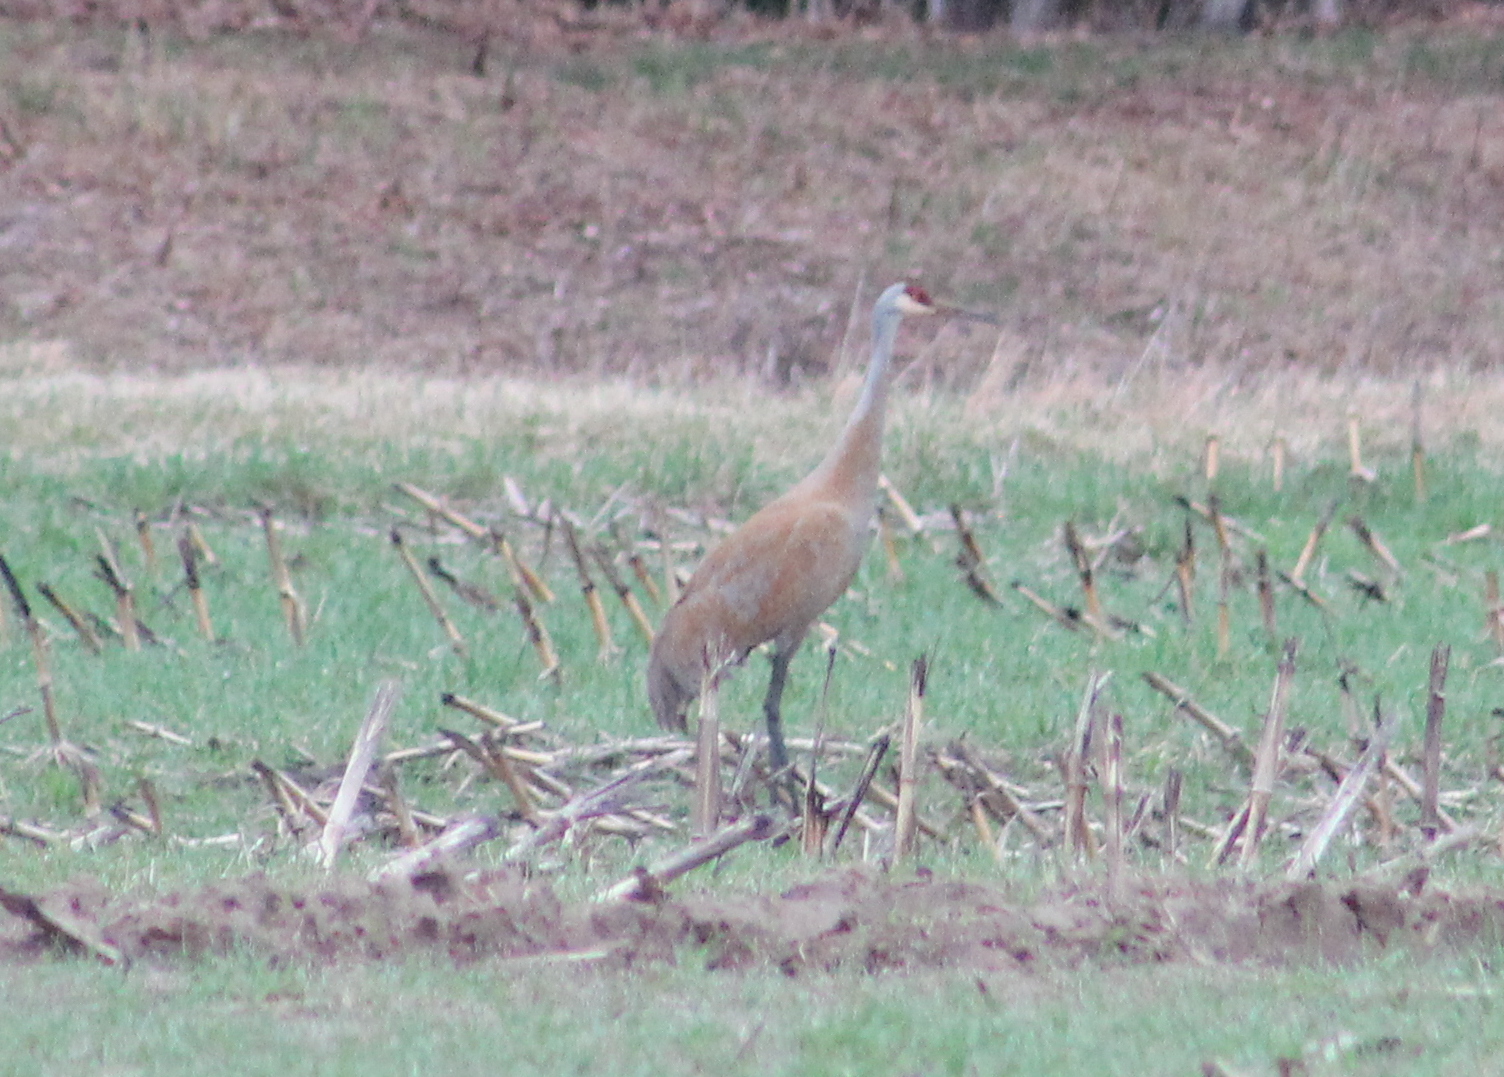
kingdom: Animalia
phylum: Chordata
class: Aves
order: Gruiformes
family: Gruidae
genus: Grus
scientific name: Grus canadensis
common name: Sandhill crane
